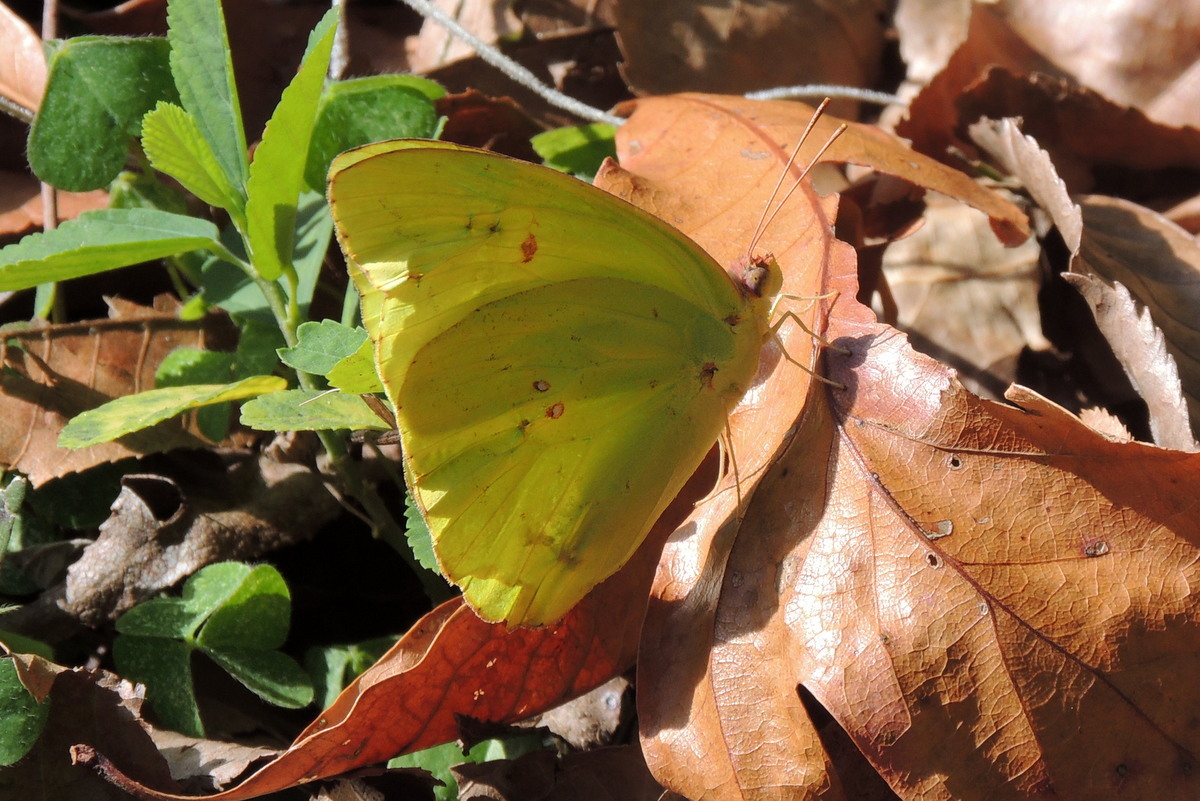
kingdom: Animalia
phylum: Arthropoda
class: Insecta
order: Lepidoptera
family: Pieridae
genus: Phoebis
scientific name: Phoebis sennae
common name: Cloudless sulphur
